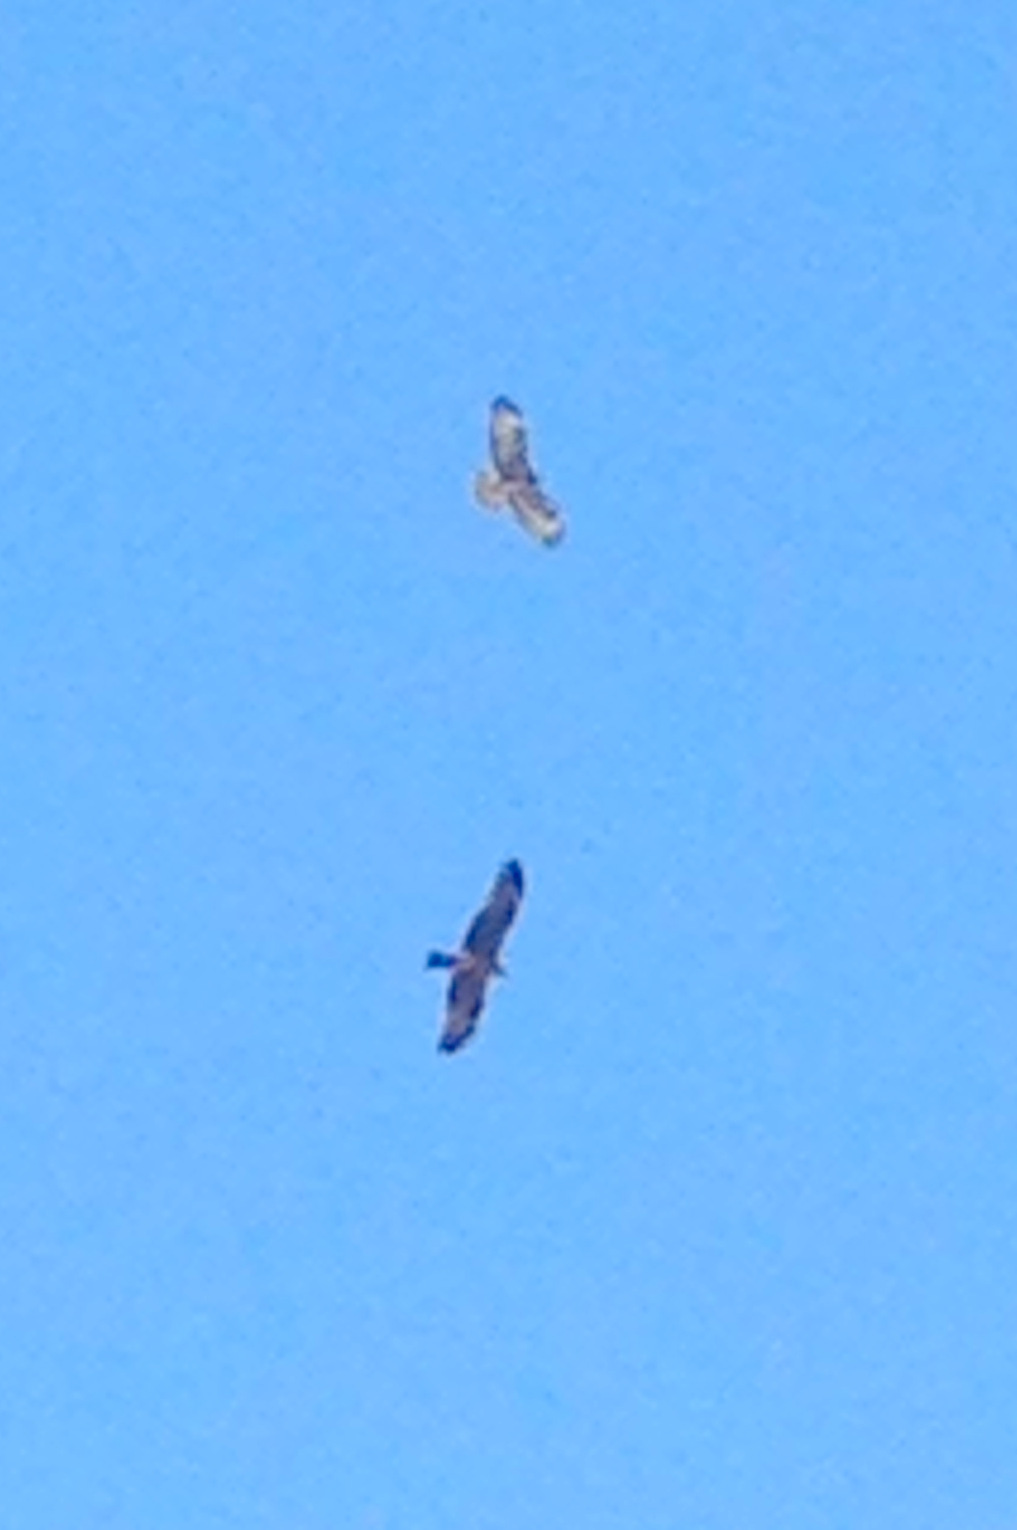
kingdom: Animalia
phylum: Chordata
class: Aves
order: Accipitriformes
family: Accipitridae
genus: Milvus
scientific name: Milvus milvus
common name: Red kite
